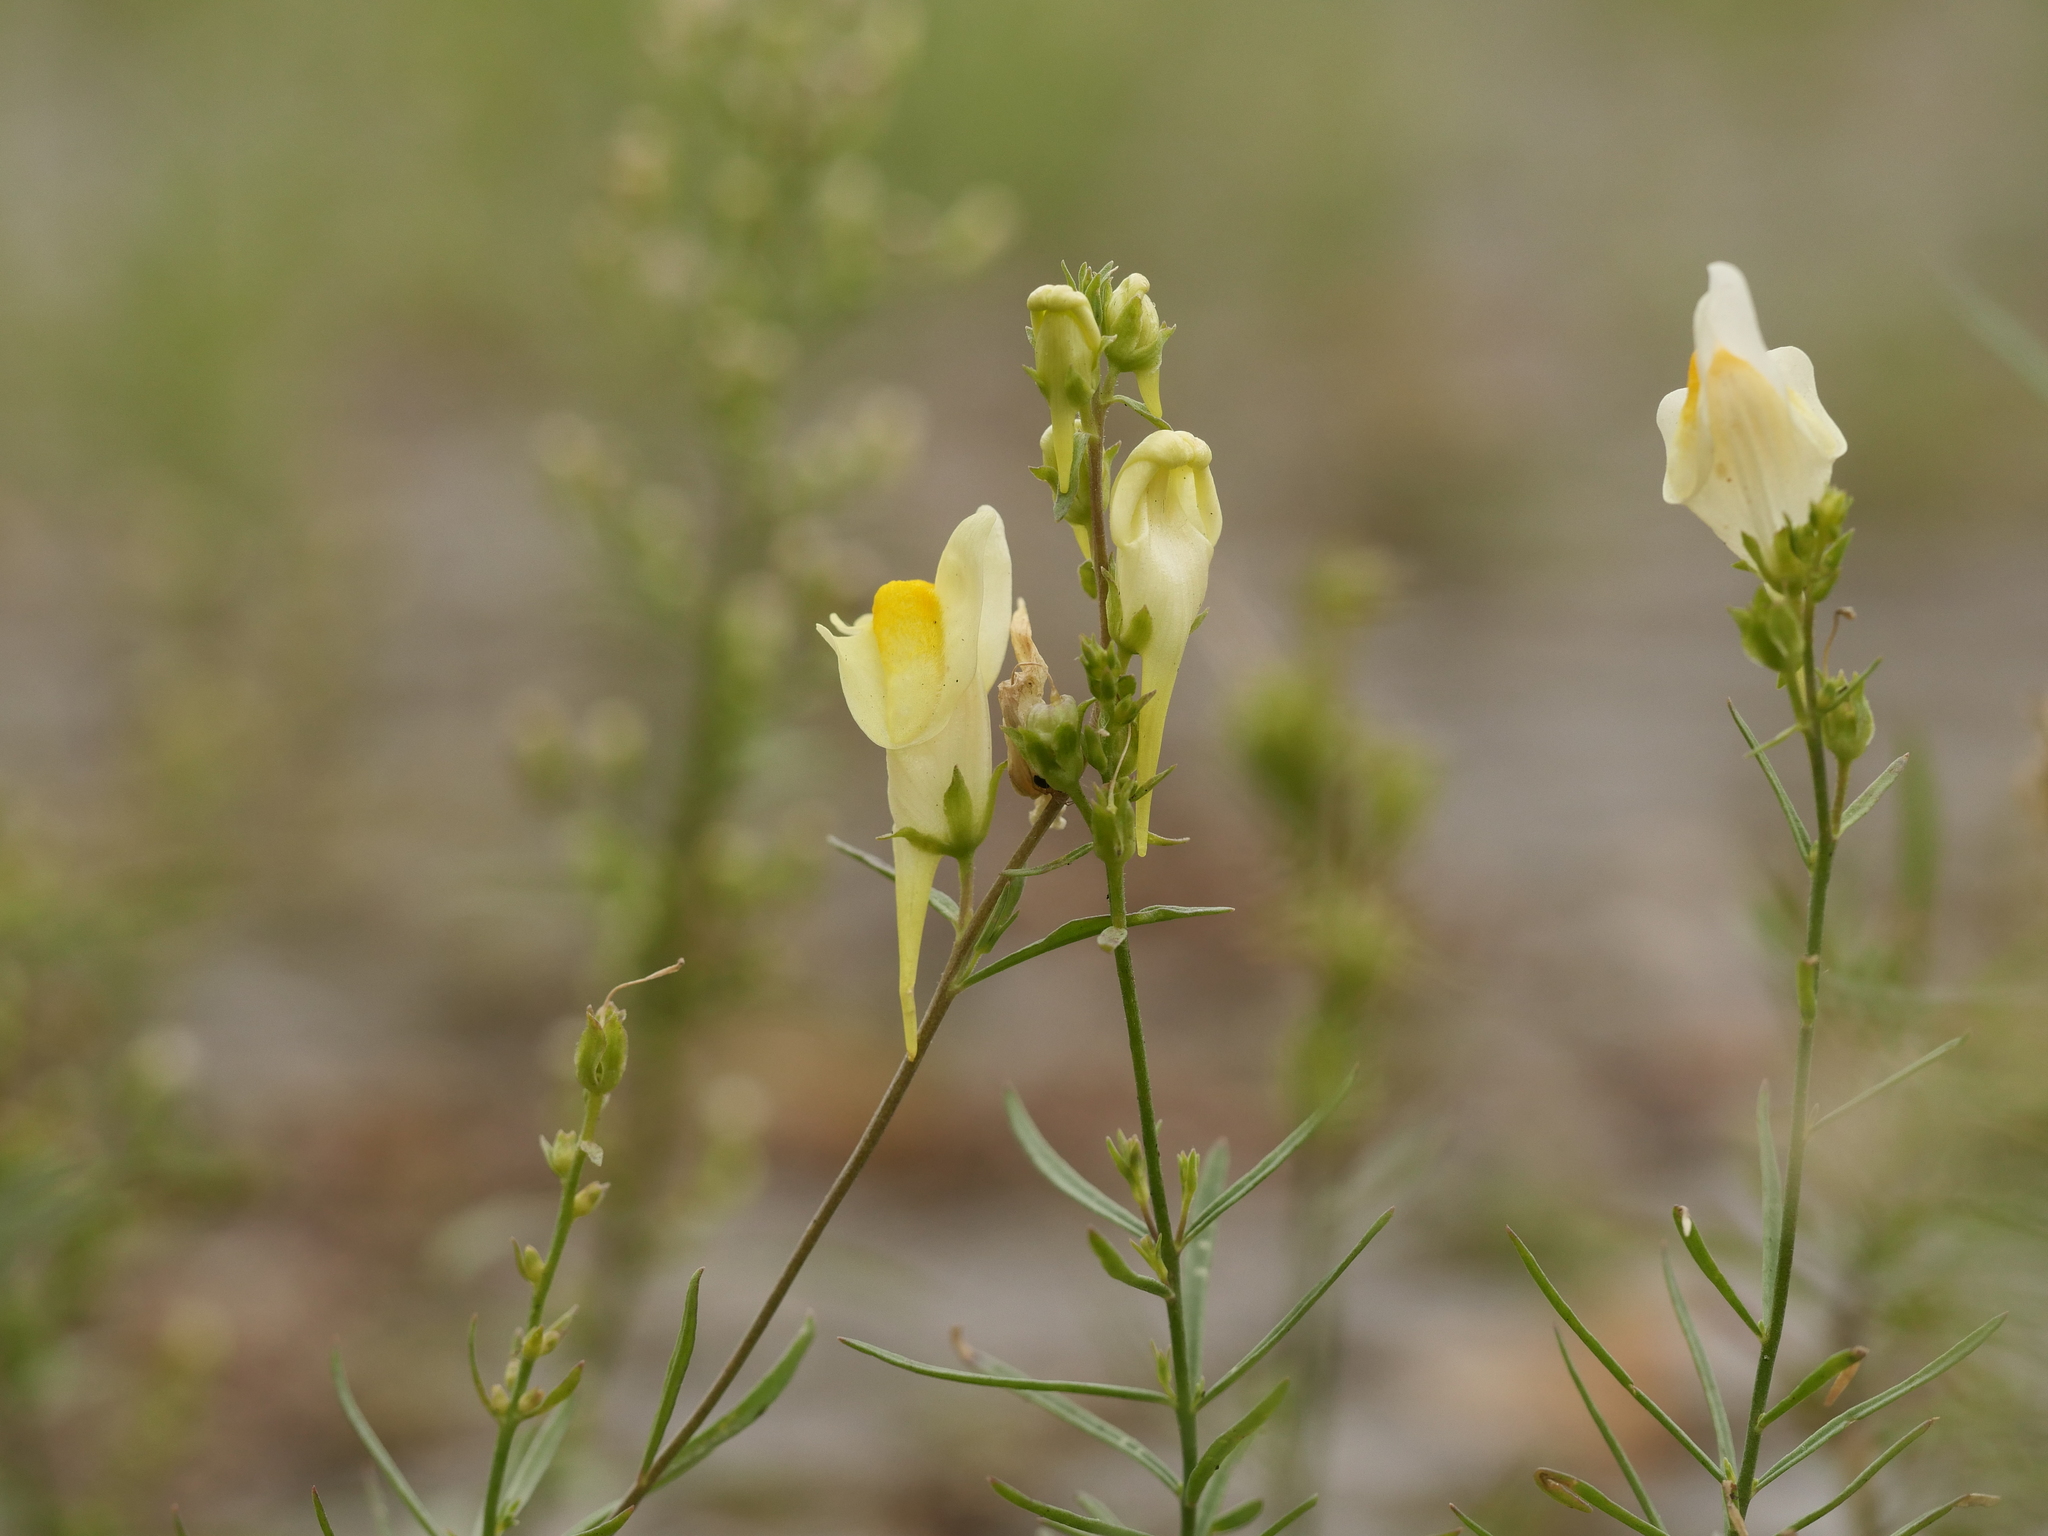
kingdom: Plantae
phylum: Tracheophyta
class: Magnoliopsida
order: Lamiales
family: Plantaginaceae
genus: Linaria
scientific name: Linaria vulgaris
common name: Butter and eggs
